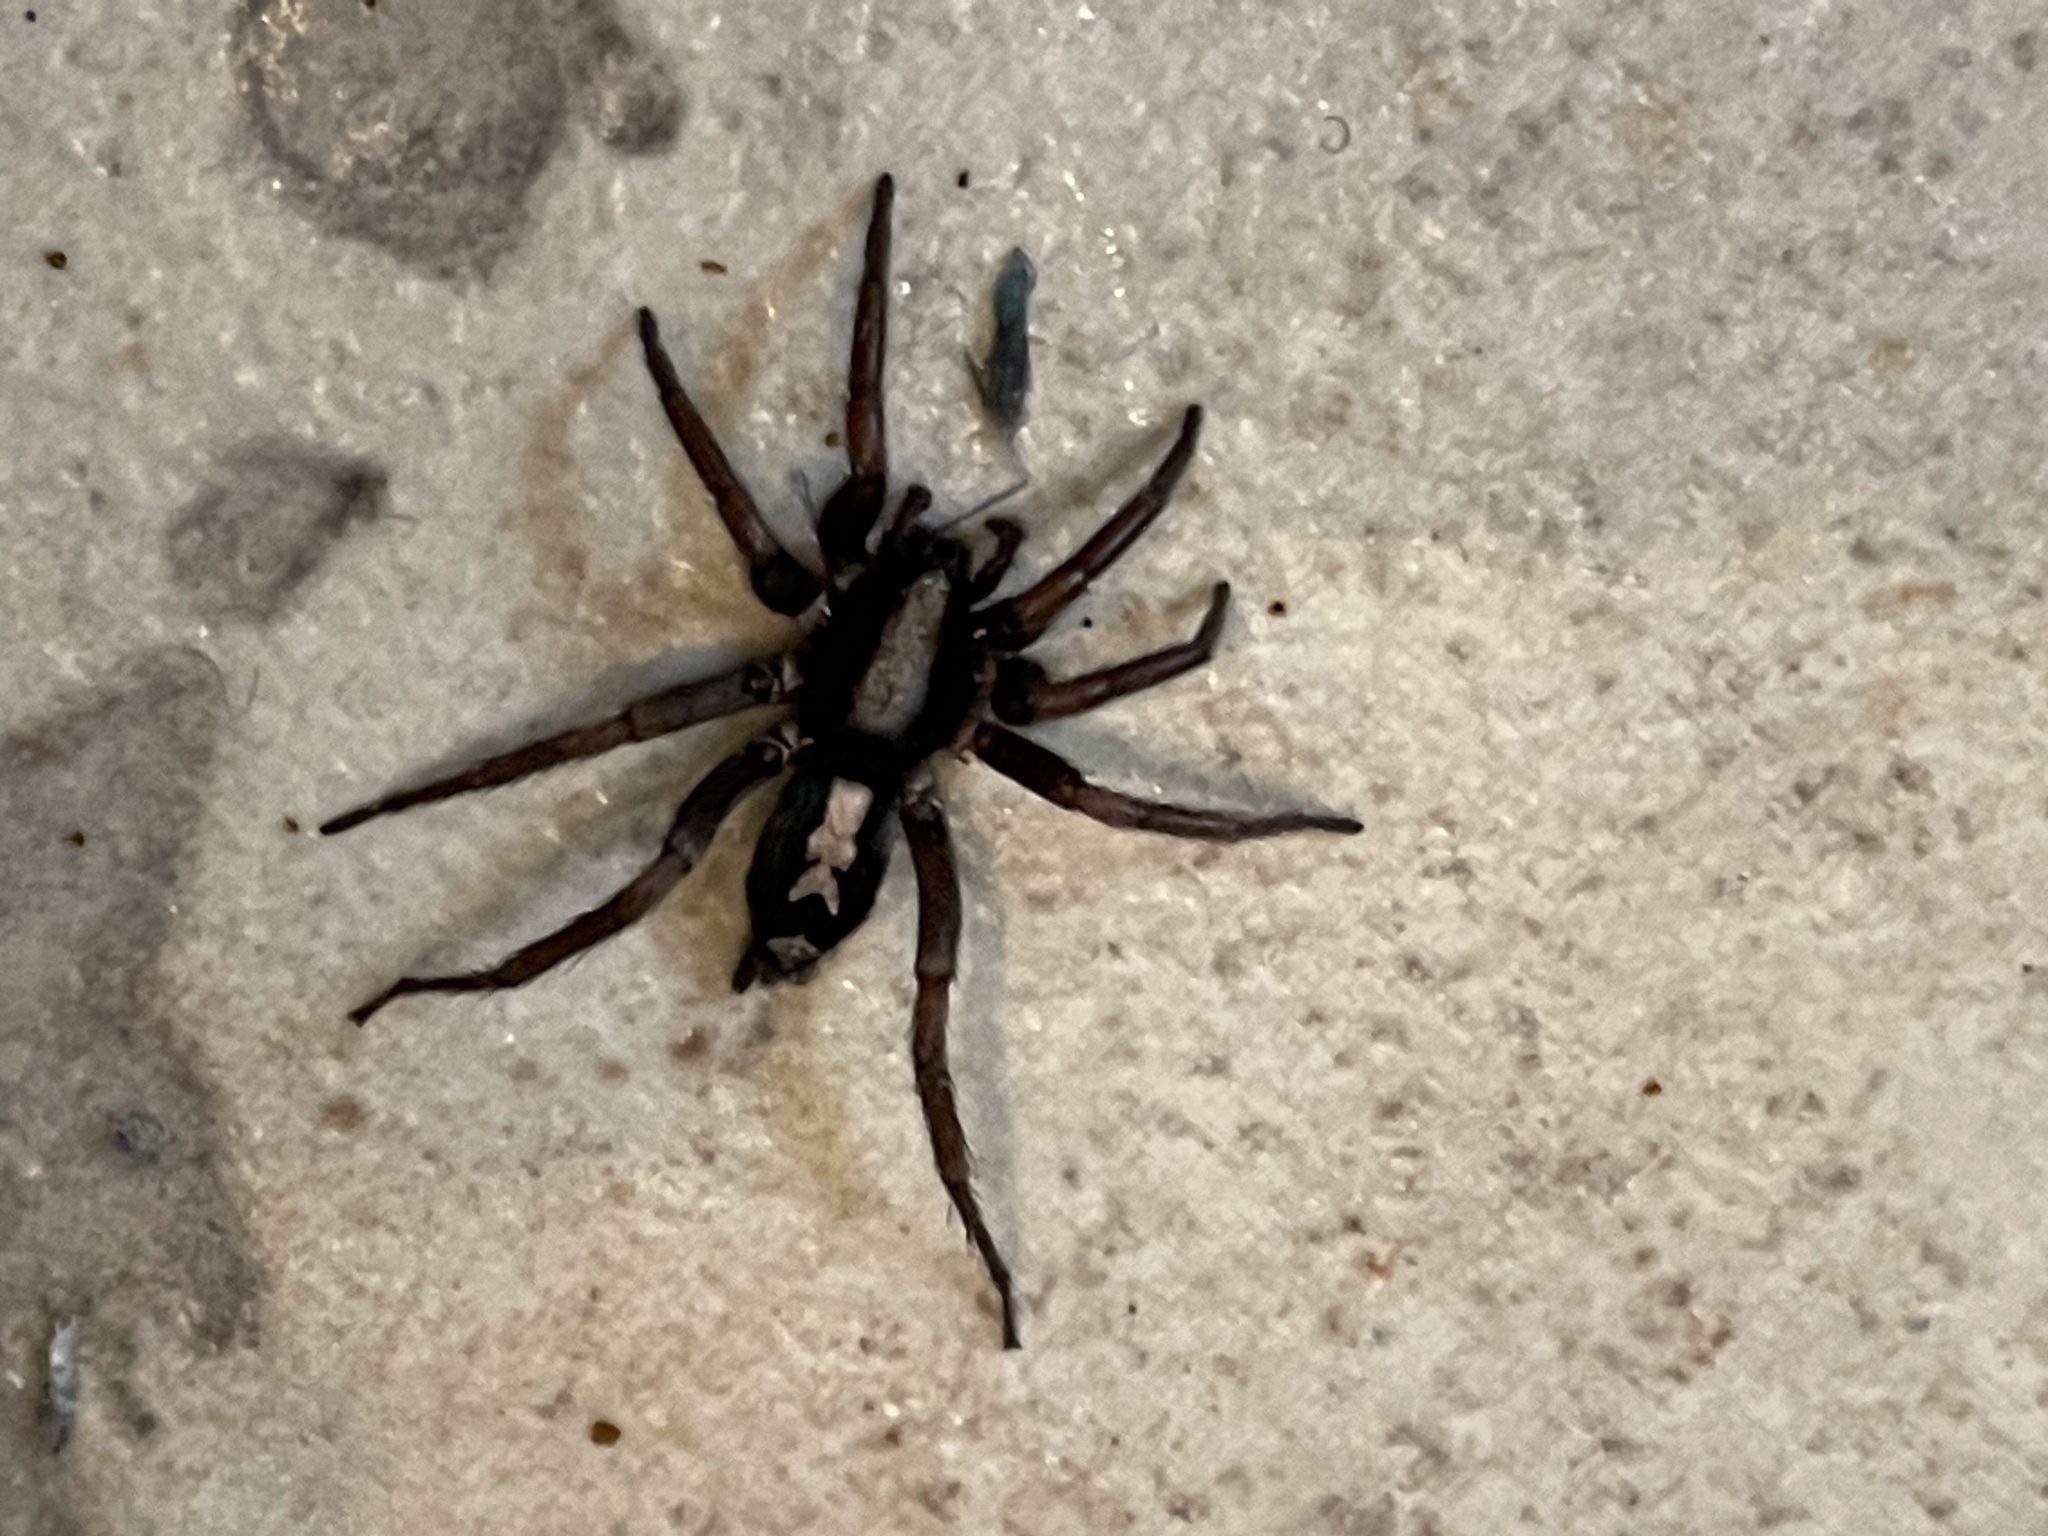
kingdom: Animalia
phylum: Arthropoda
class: Arachnida
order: Araneae
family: Gnaphosidae
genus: Herpyllus
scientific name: Herpyllus ecclesiasticus
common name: Eastern parson spider
